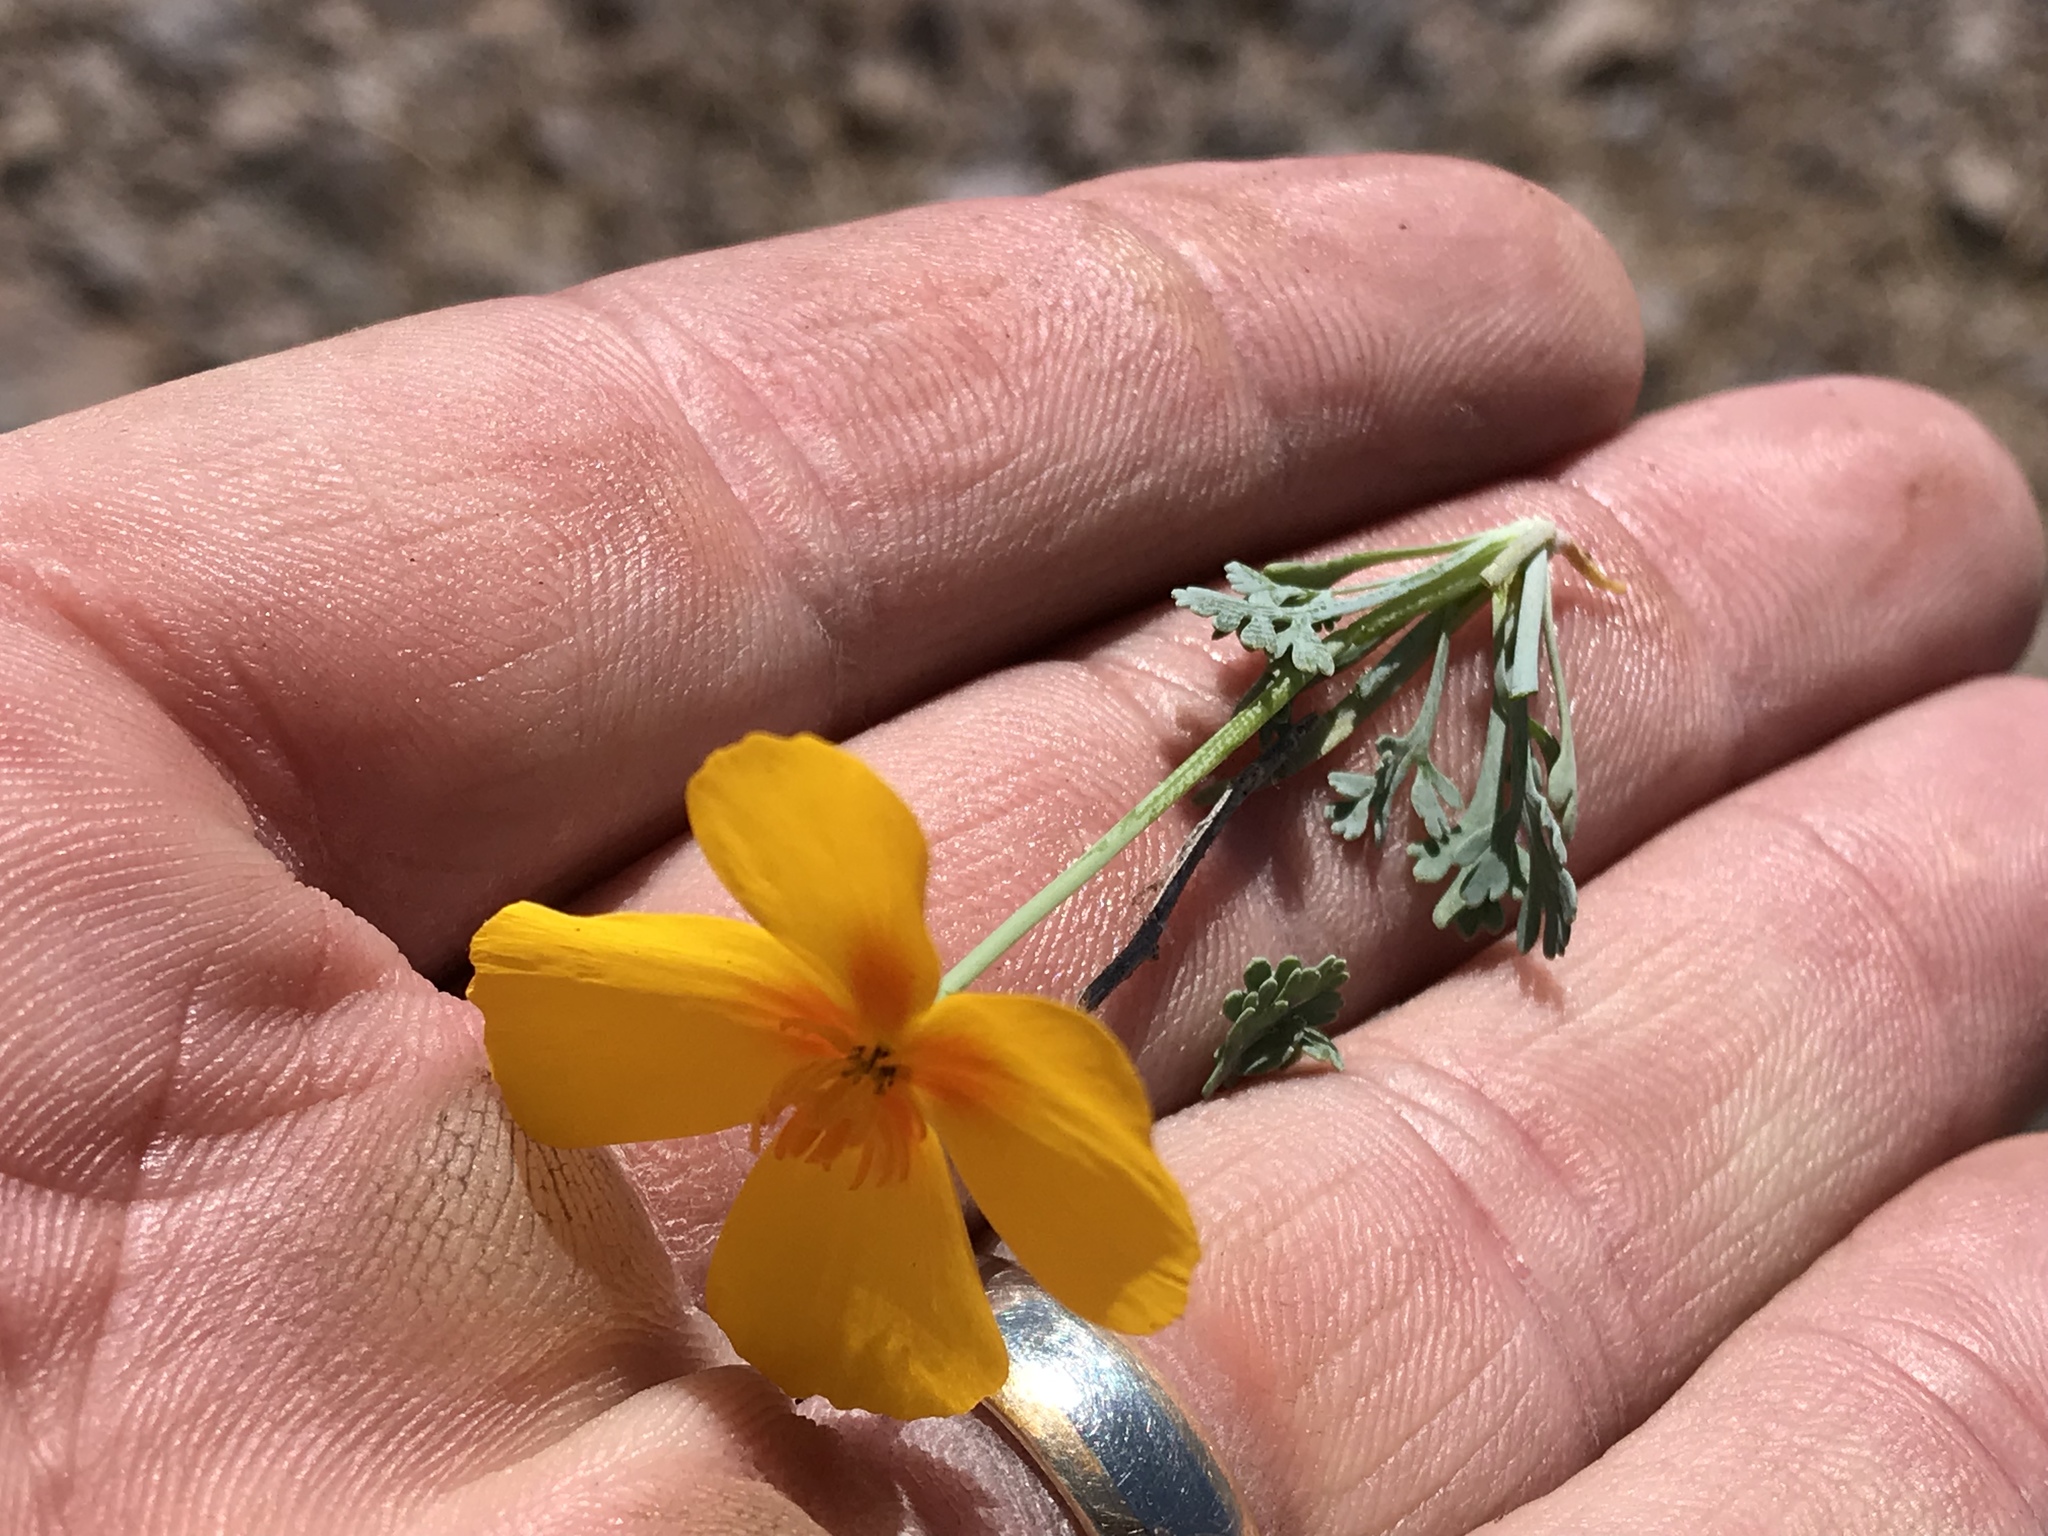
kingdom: Plantae
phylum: Tracheophyta
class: Magnoliopsida
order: Ranunculales
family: Papaveraceae
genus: Eschscholzia
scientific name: Eschscholzia californica
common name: California poppy
